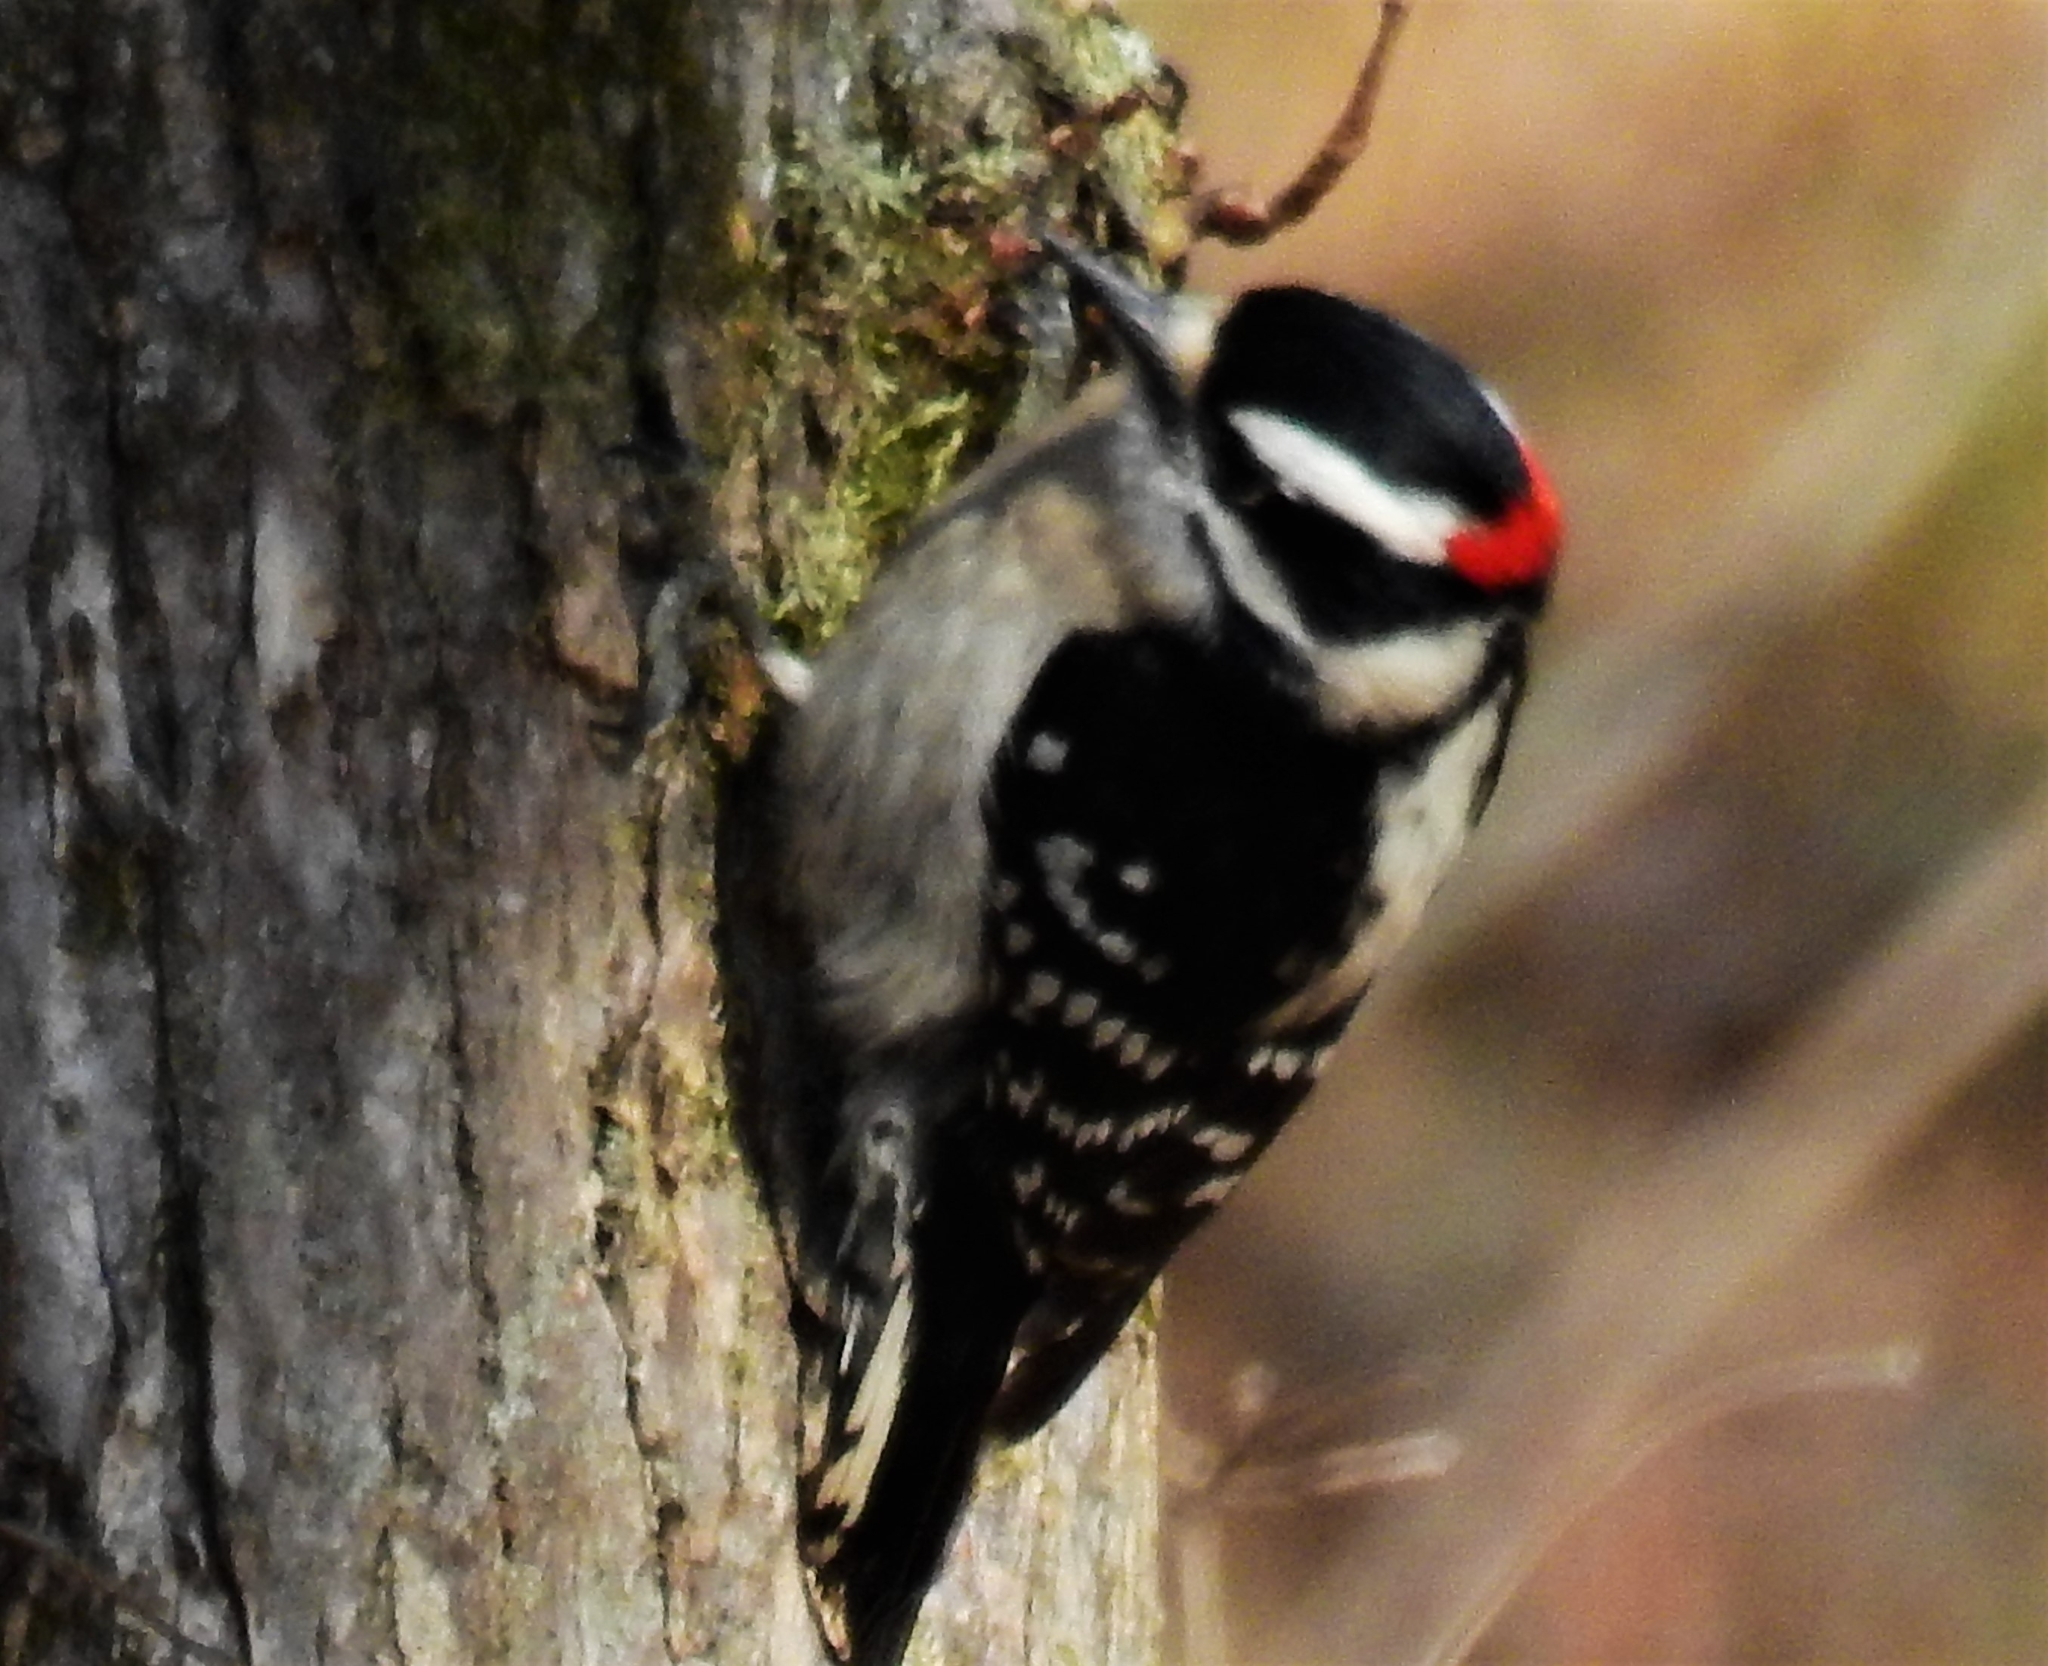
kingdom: Animalia
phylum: Chordata
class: Aves
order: Piciformes
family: Picidae
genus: Dryobates
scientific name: Dryobates pubescens
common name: Downy woodpecker
